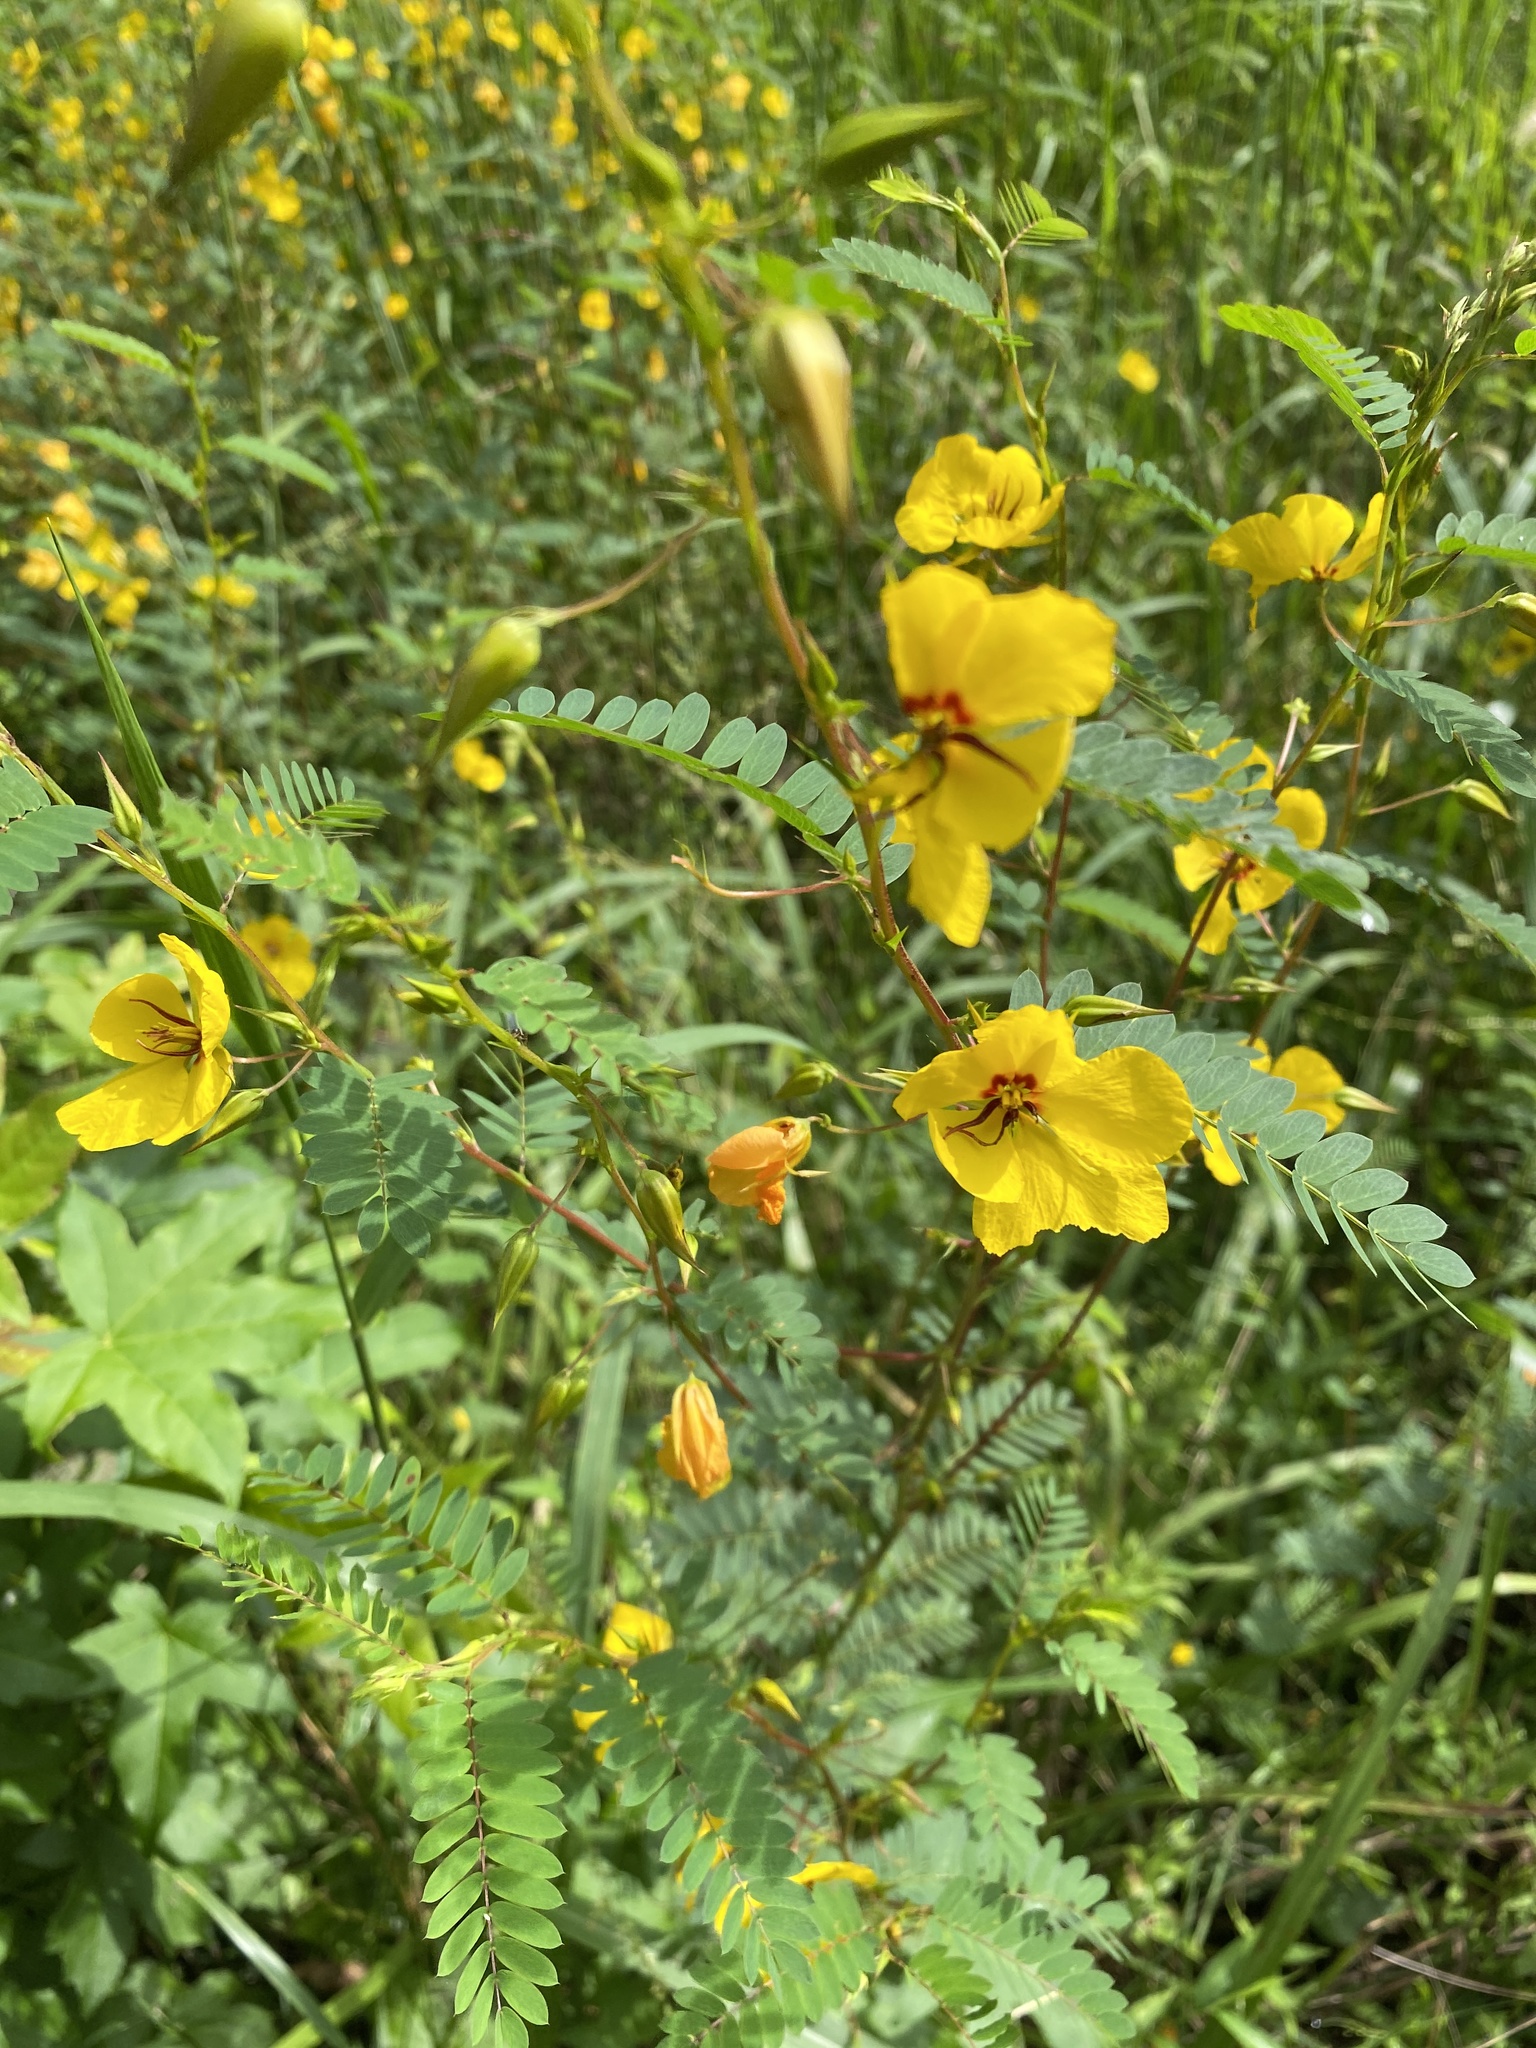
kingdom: Plantae
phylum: Tracheophyta
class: Magnoliopsida
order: Fabales
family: Fabaceae
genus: Chamaecrista
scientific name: Chamaecrista fasciculata
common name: Golden cassia
